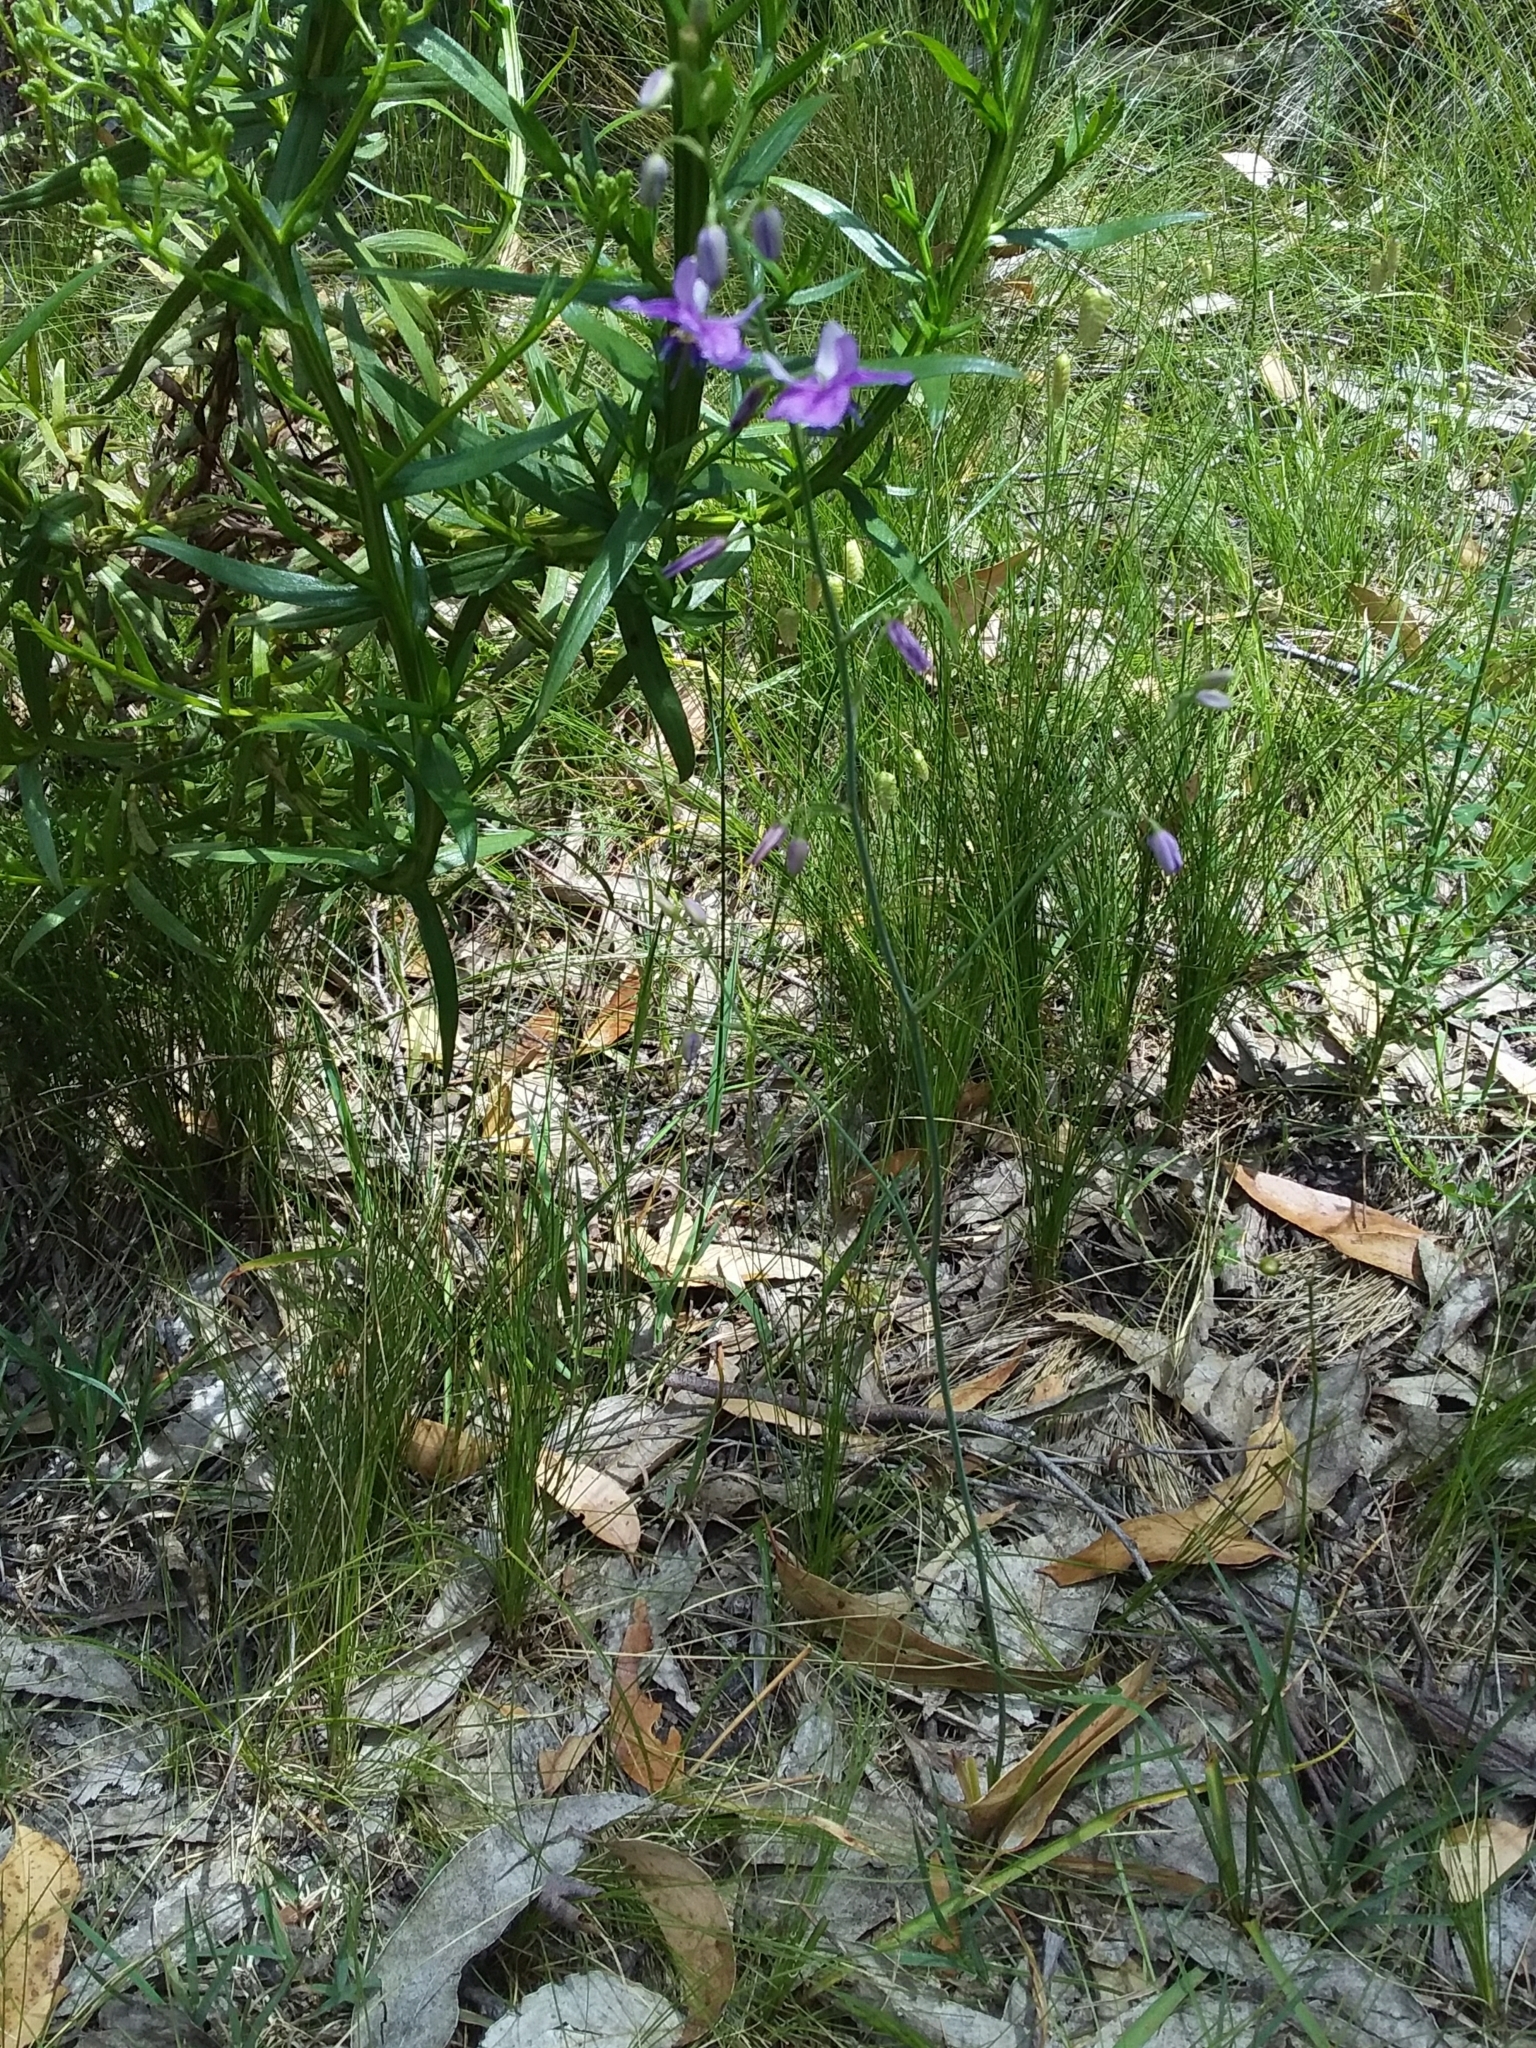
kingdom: Plantae
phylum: Tracheophyta
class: Liliopsida
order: Asparagales
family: Asparagaceae
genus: Arthropodium
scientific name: Arthropodium strictum
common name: Chocolate-lily
